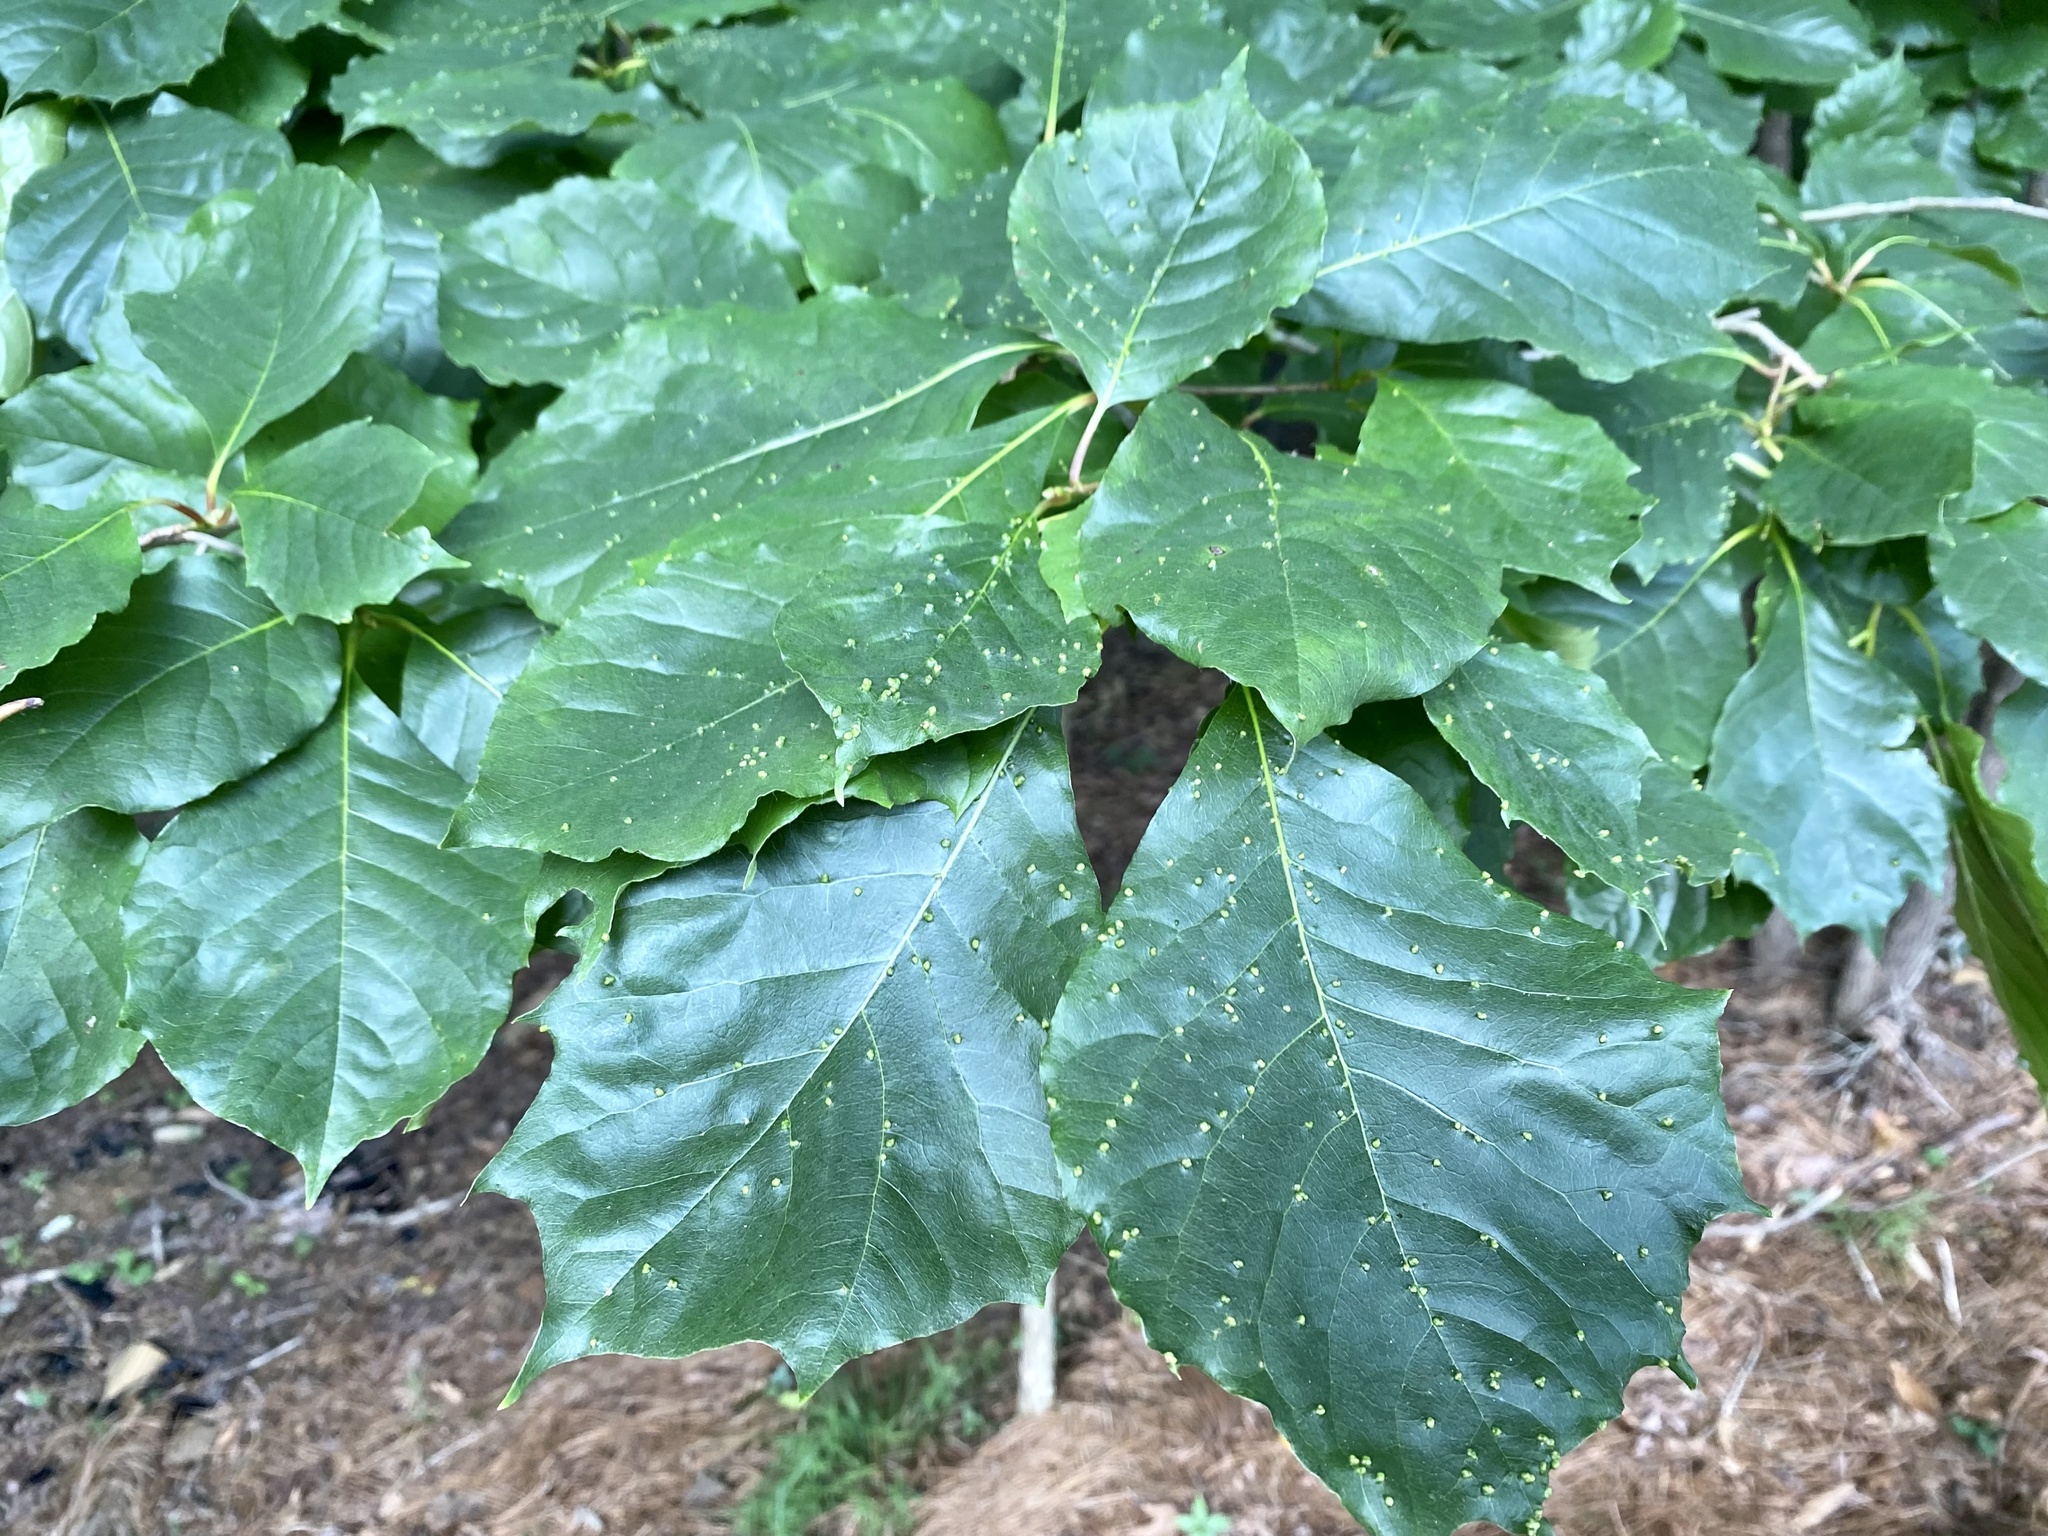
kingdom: Animalia
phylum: Arthropoda
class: Arachnida
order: Trombidiformes
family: Eriophyidae
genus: Aceria
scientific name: Aceria
